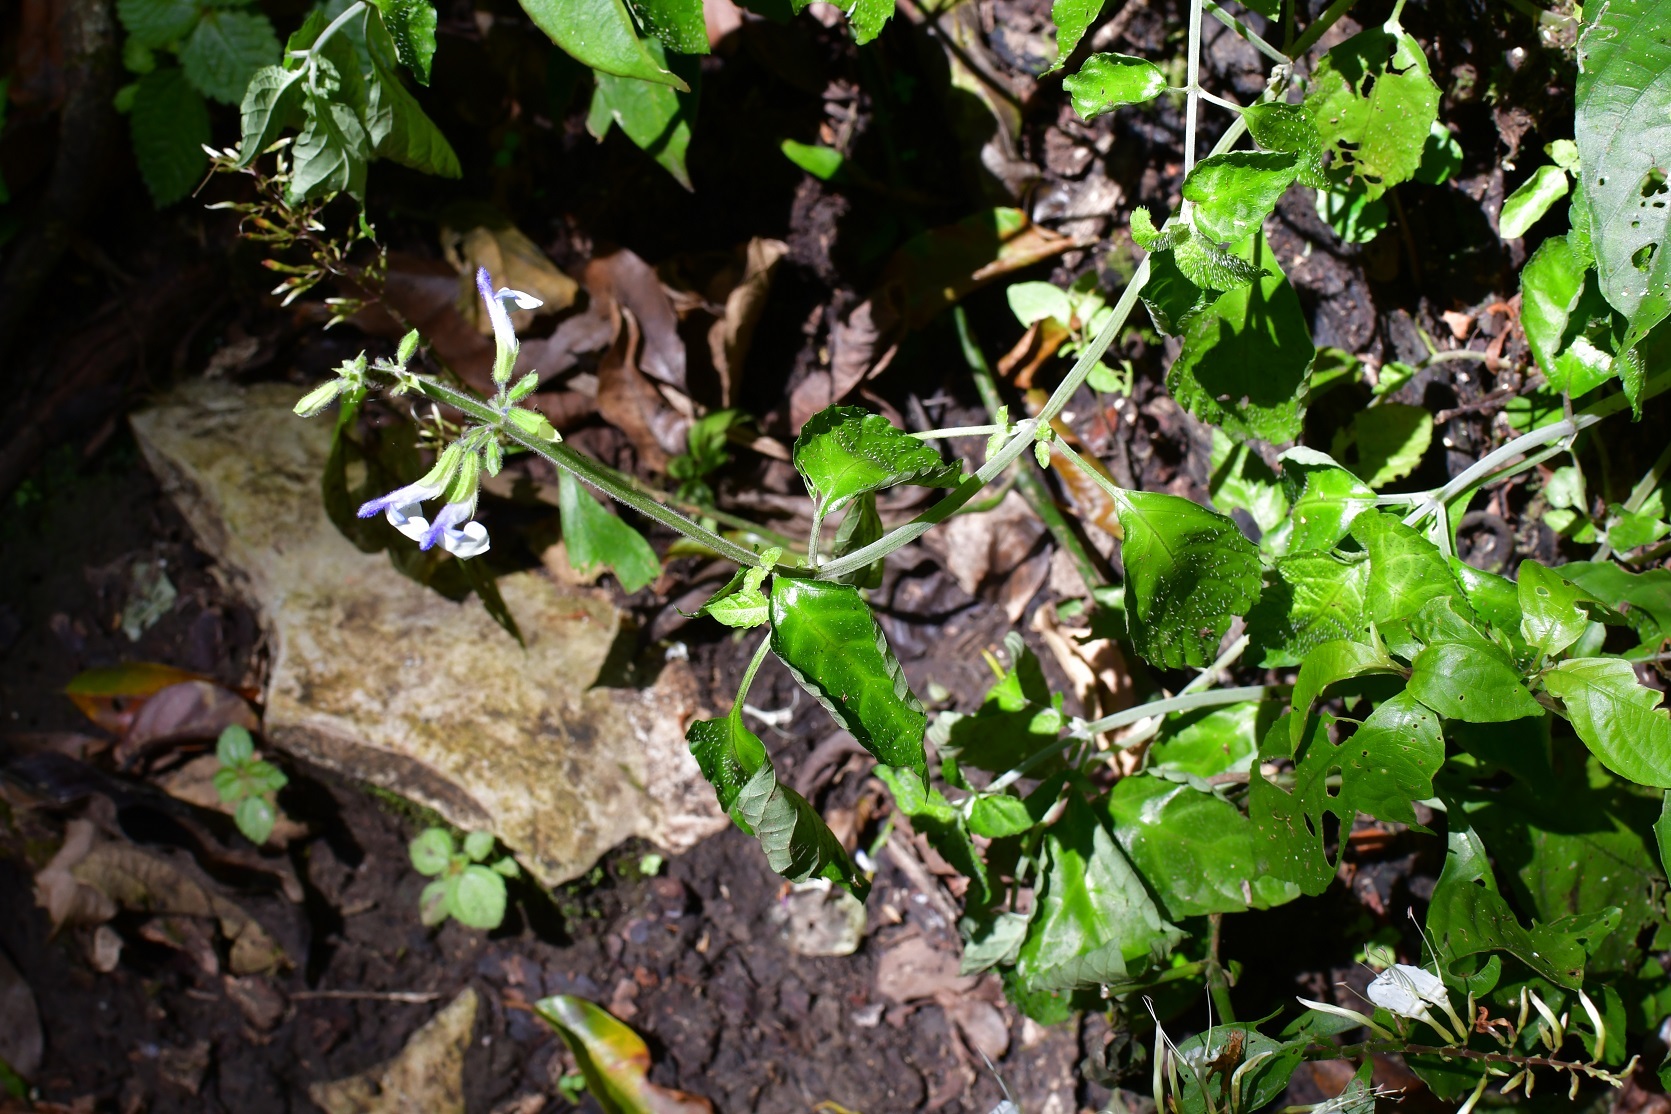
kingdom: Plantae
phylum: Tracheophyta
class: Magnoliopsida
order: Lamiales
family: Lamiaceae
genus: Salvia
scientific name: Salvia flaccida
